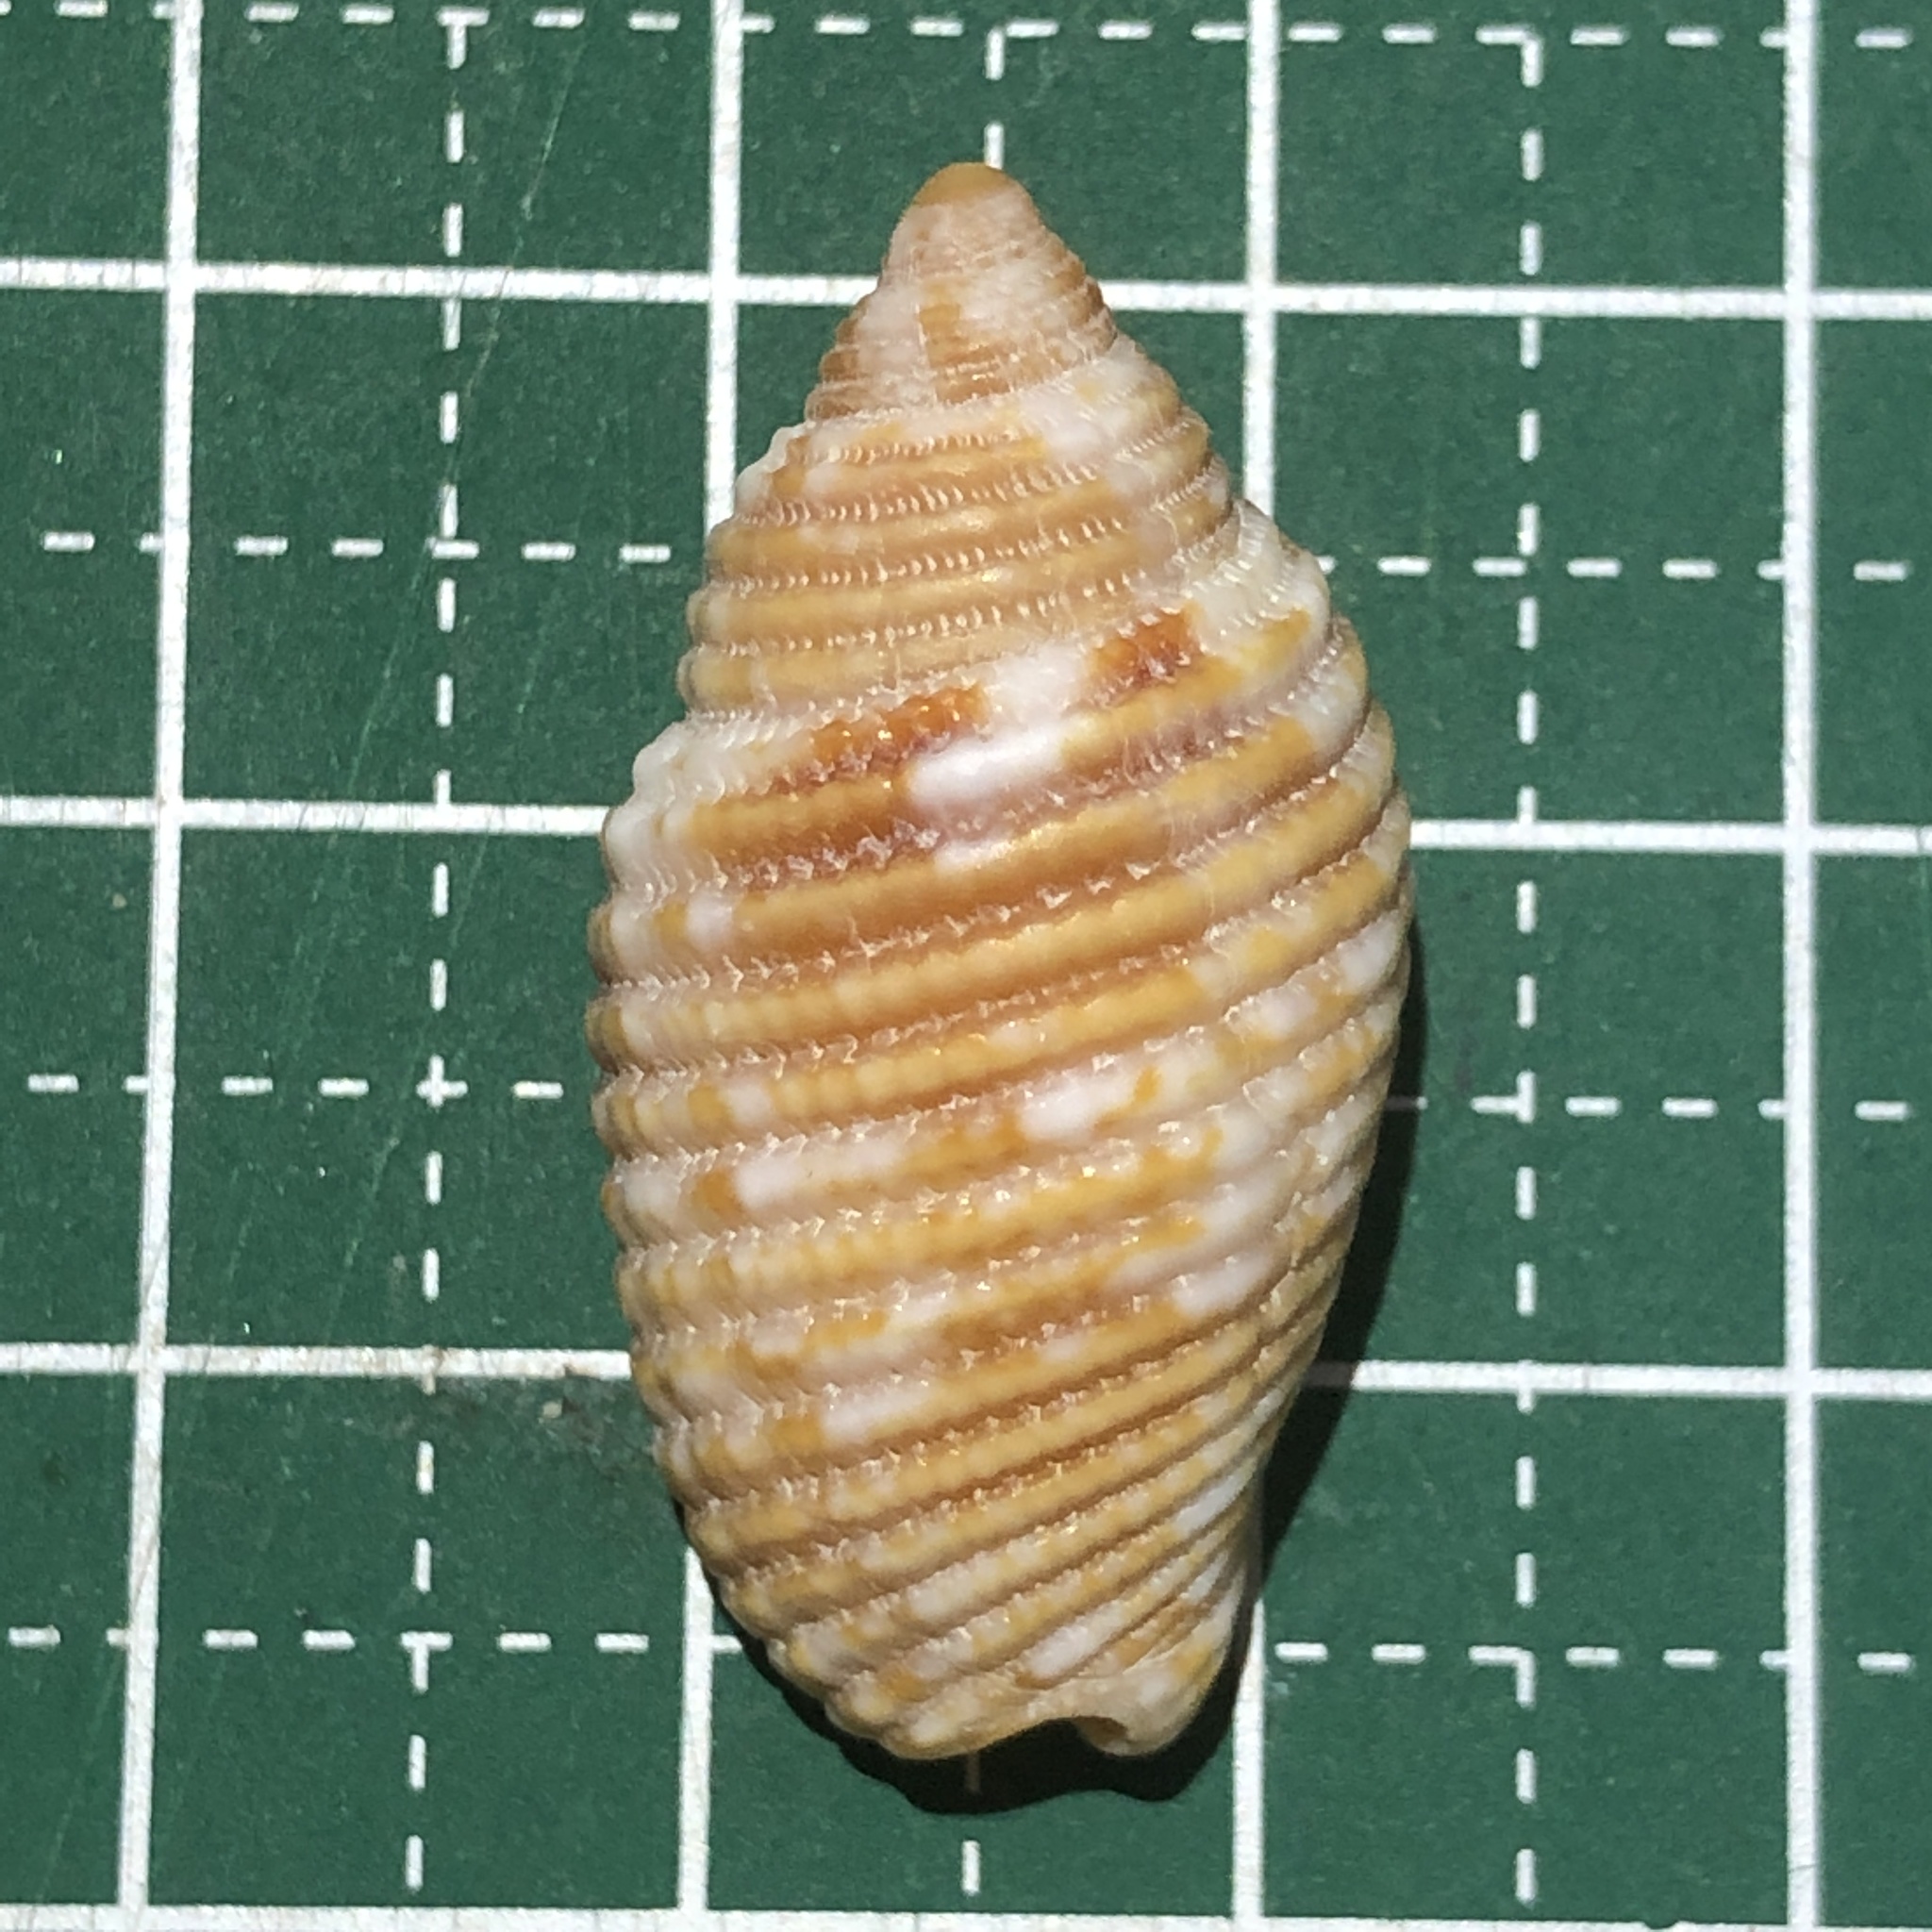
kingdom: Animalia
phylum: Mollusca
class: Gastropoda
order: Neogastropoda
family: Mitridae
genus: Pterygia
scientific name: Pterygia scabricula
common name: Rough miter
